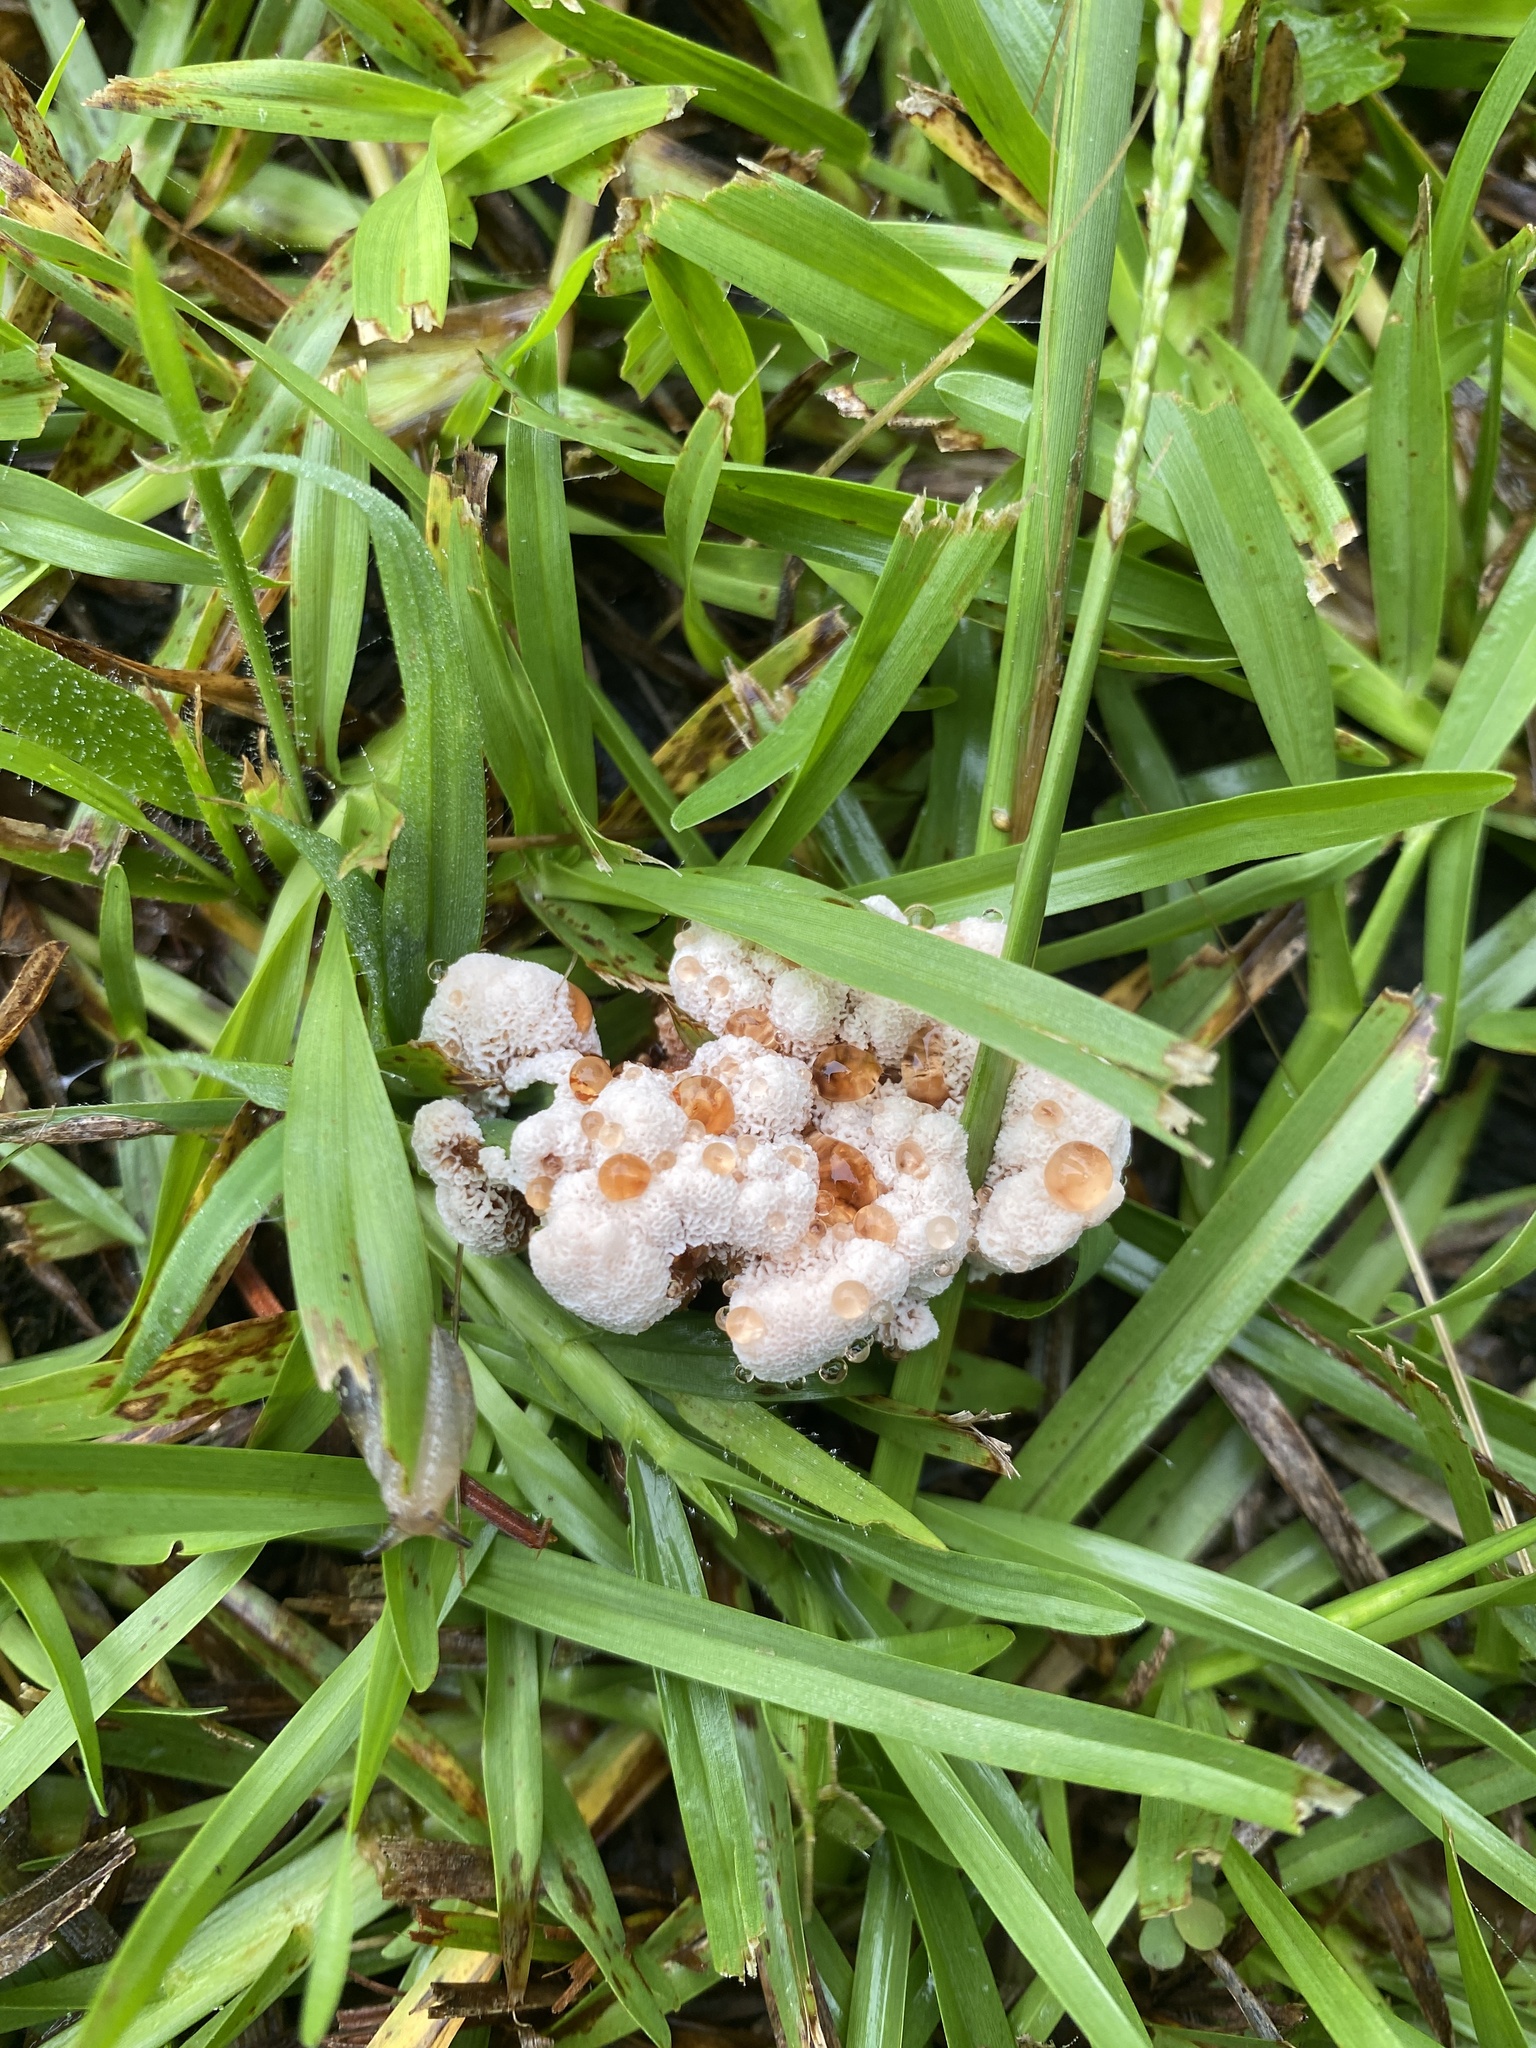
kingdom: Fungi
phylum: Basidiomycota
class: Agaricomycetes
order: Polyporales
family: Podoscyphaceae
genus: Abortiporus
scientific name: Abortiporus biennis
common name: Blushing rosette
